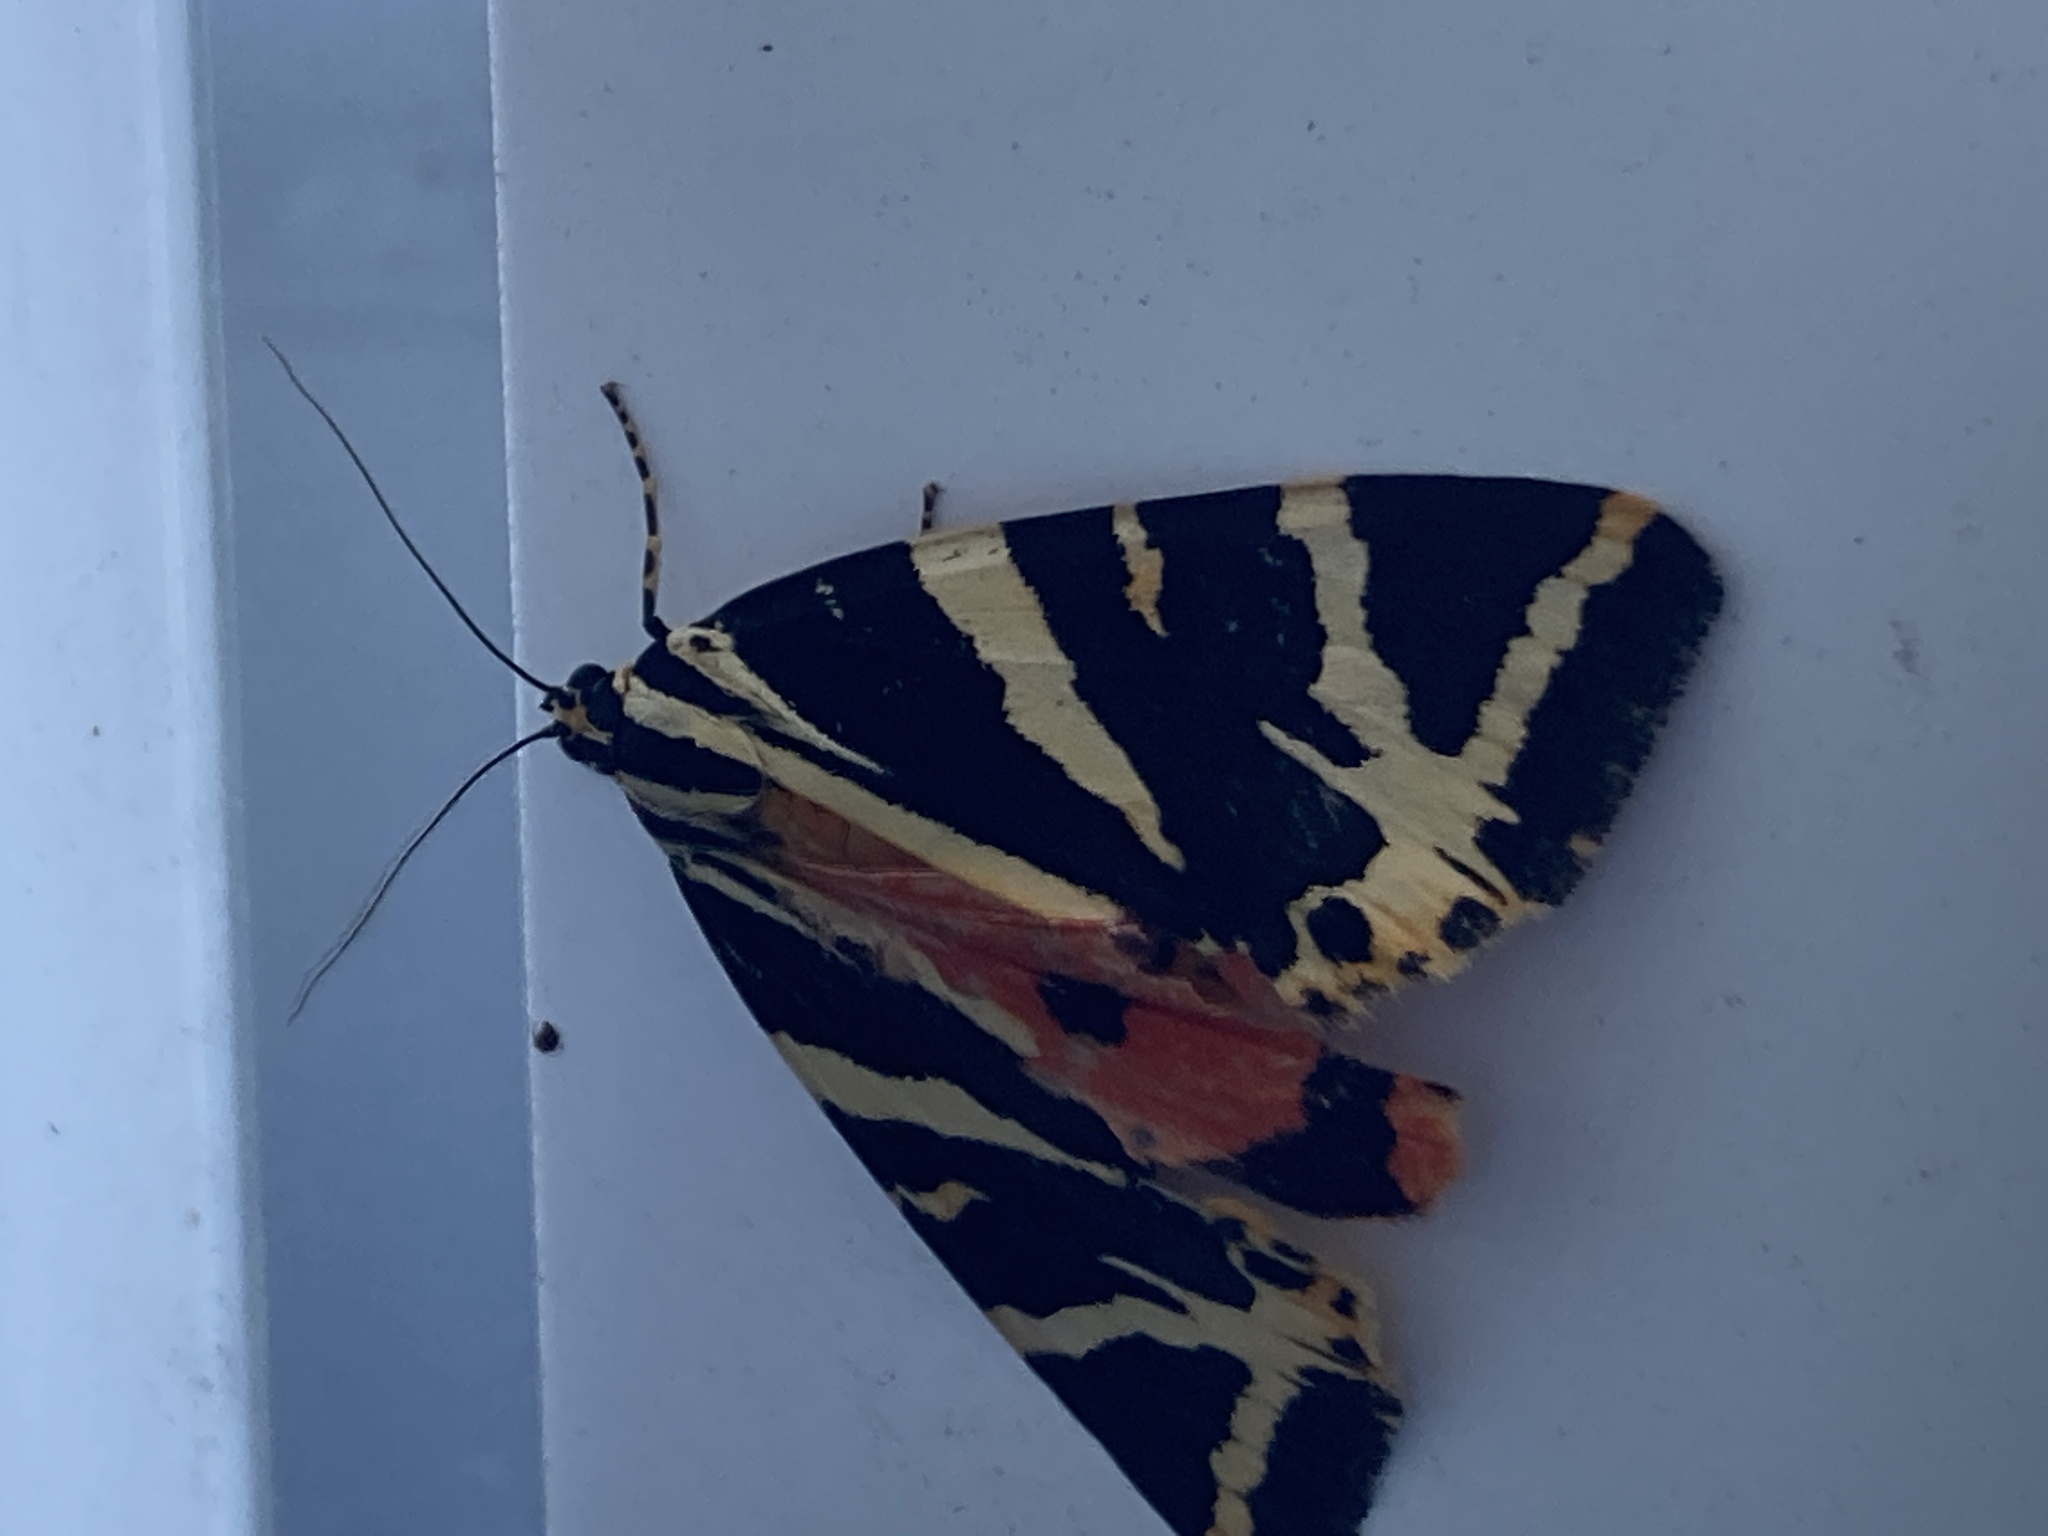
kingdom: Animalia
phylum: Arthropoda
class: Insecta
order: Lepidoptera
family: Erebidae
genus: Euplagia
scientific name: Euplagia quadripunctaria
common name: Jersey tiger
